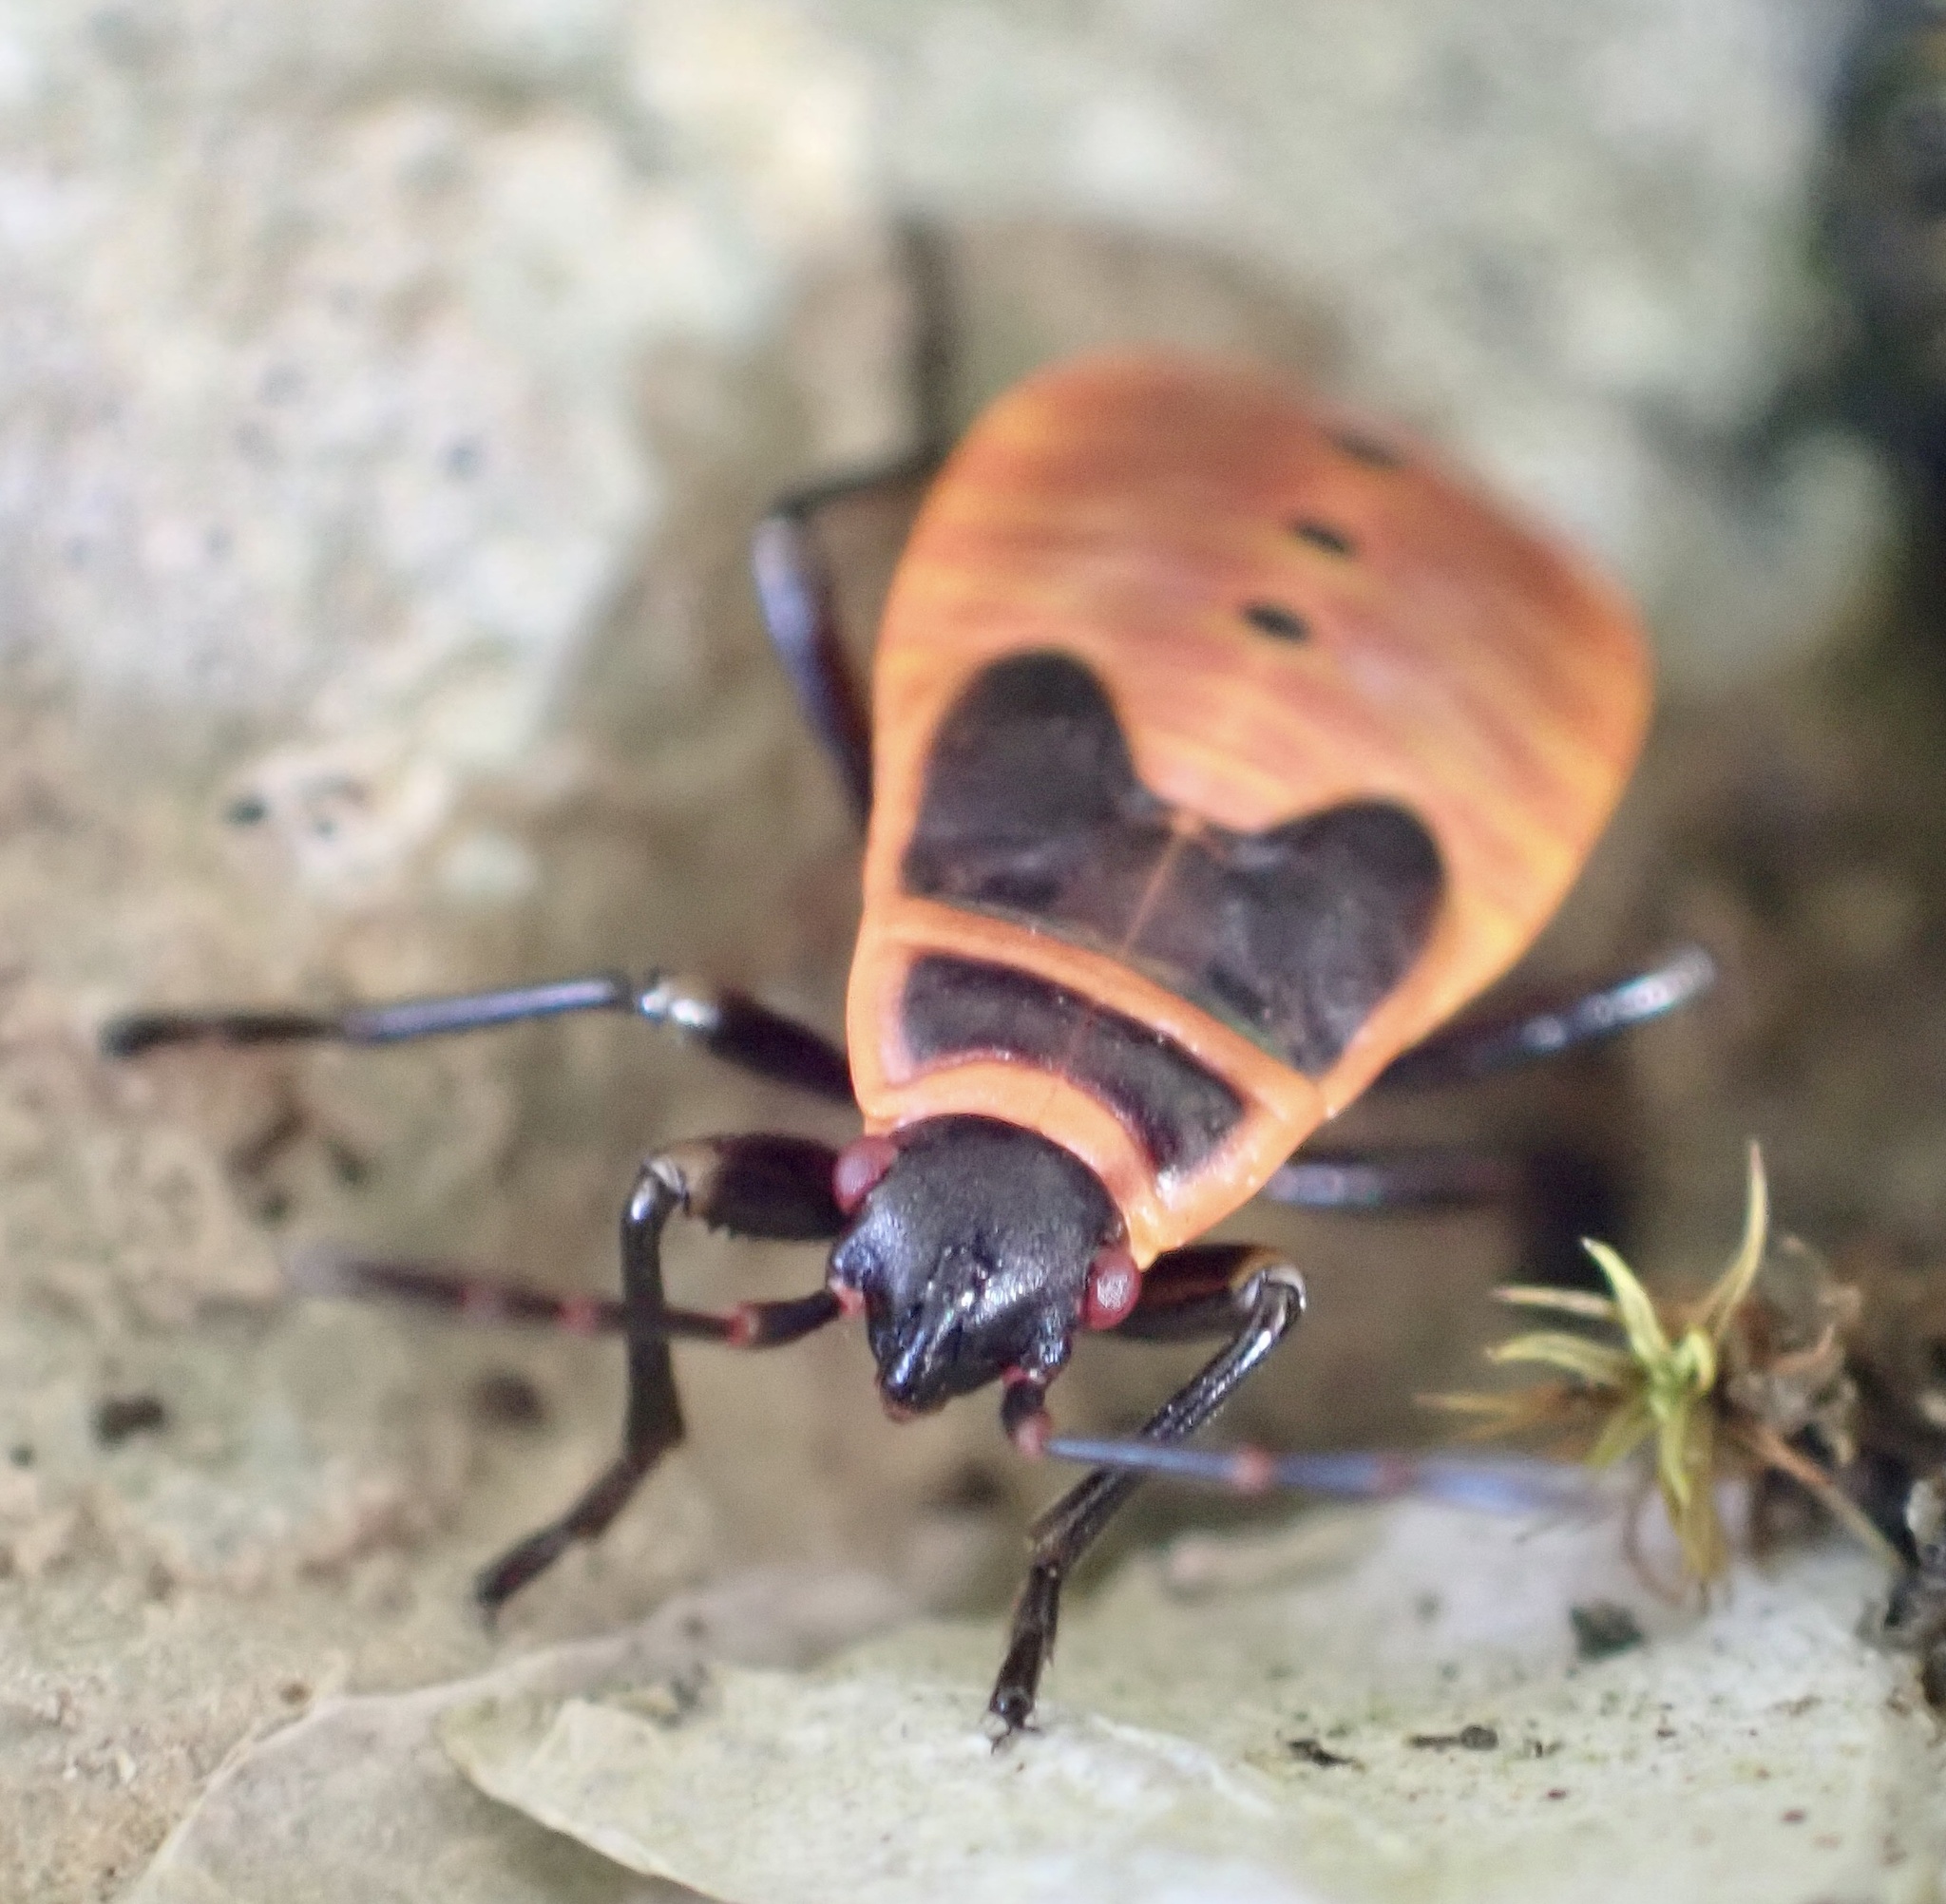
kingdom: Animalia
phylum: Arthropoda
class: Insecta
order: Hemiptera
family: Pyrrhocoridae
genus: Pyrrhocoris
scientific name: Pyrrhocoris apterus
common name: Firebug
